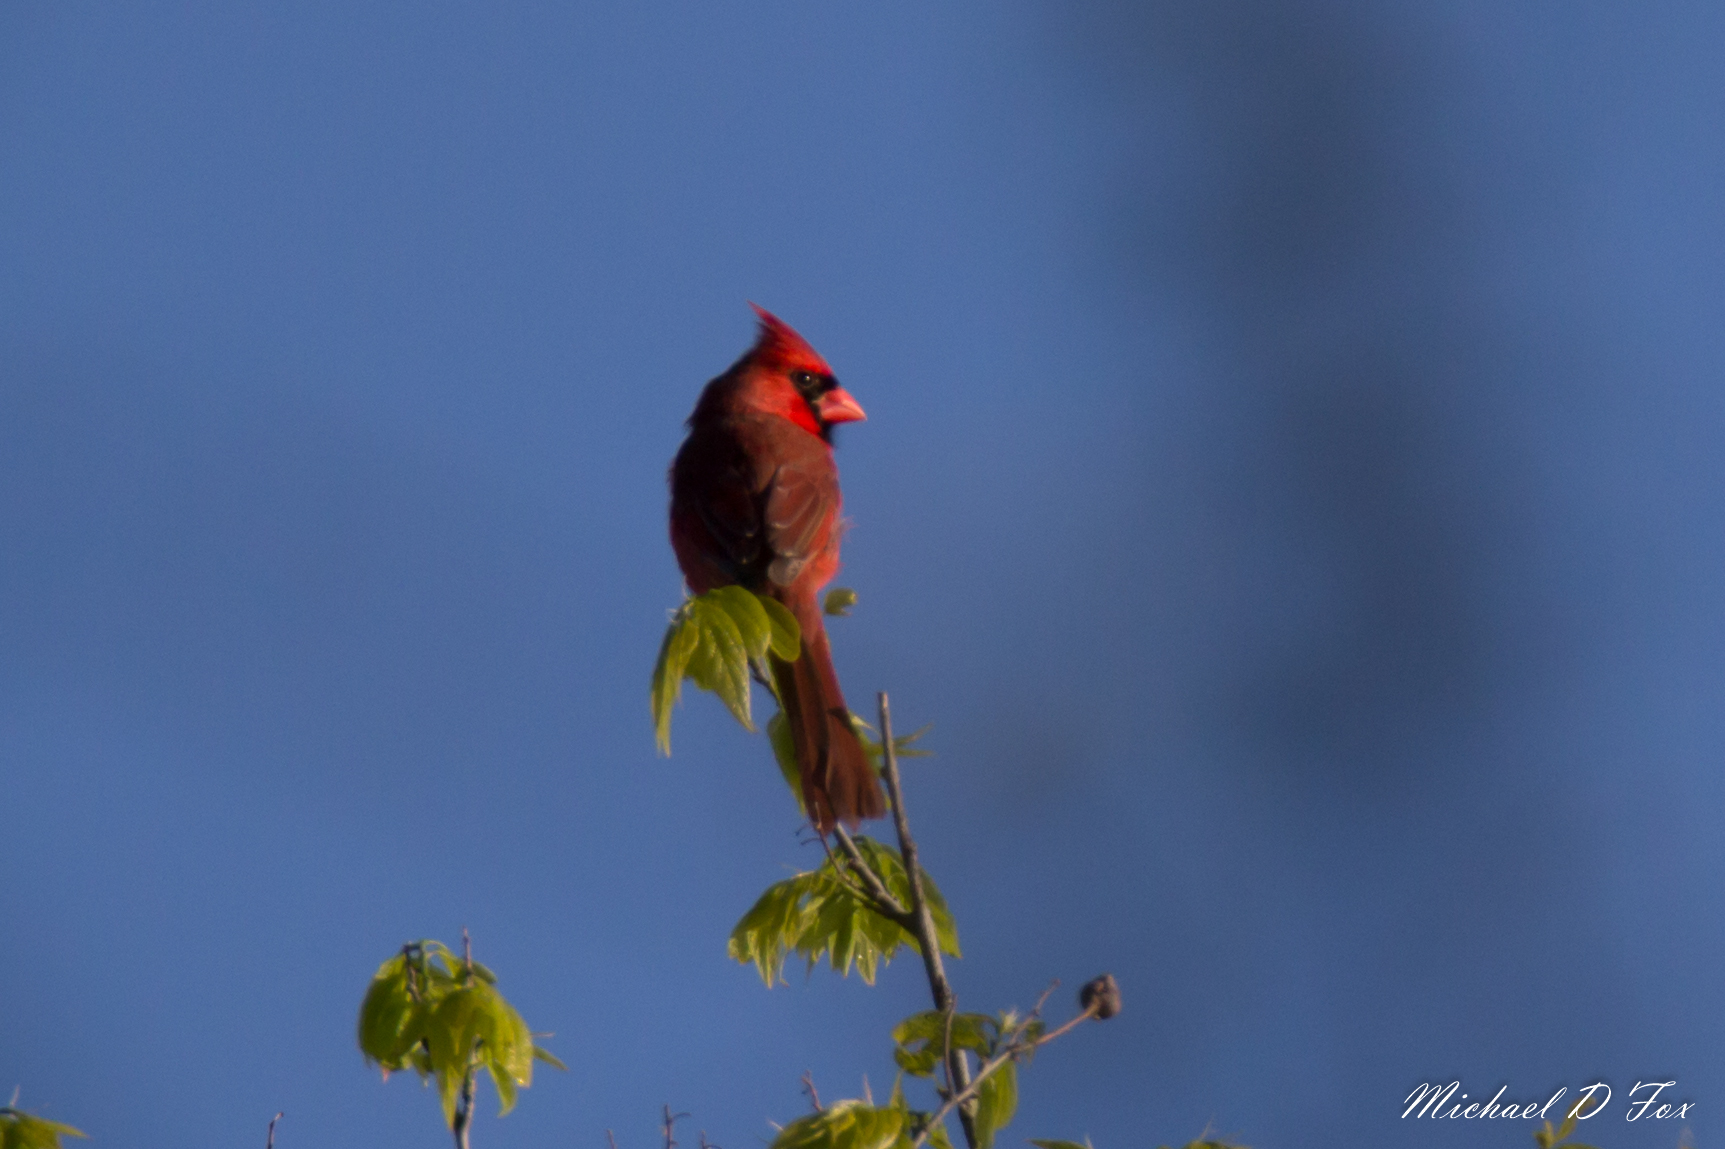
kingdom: Animalia
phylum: Chordata
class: Aves
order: Passeriformes
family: Cardinalidae
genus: Cardinalis
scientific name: Cardinalis cardinalis
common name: Northern cardinal
